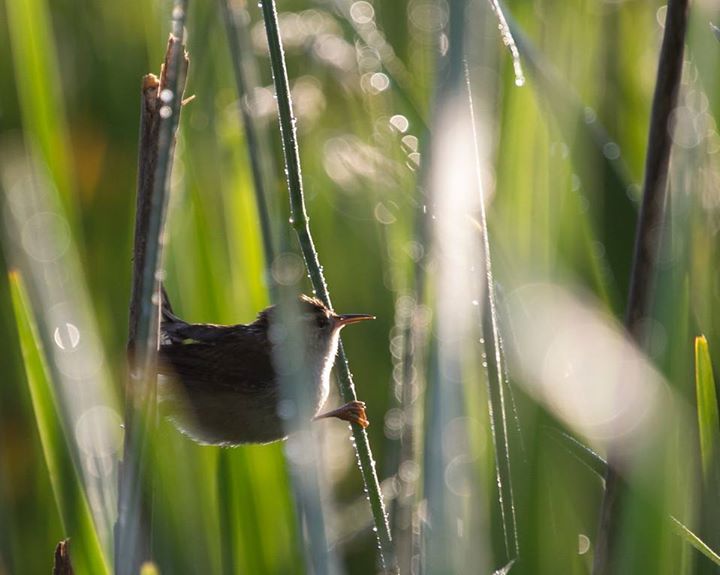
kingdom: Animalia
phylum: Chordata
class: Aves
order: Passeriformes
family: Troglodytidae
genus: Cistothorus
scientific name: Cistothorus palustris
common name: Marsh wren
